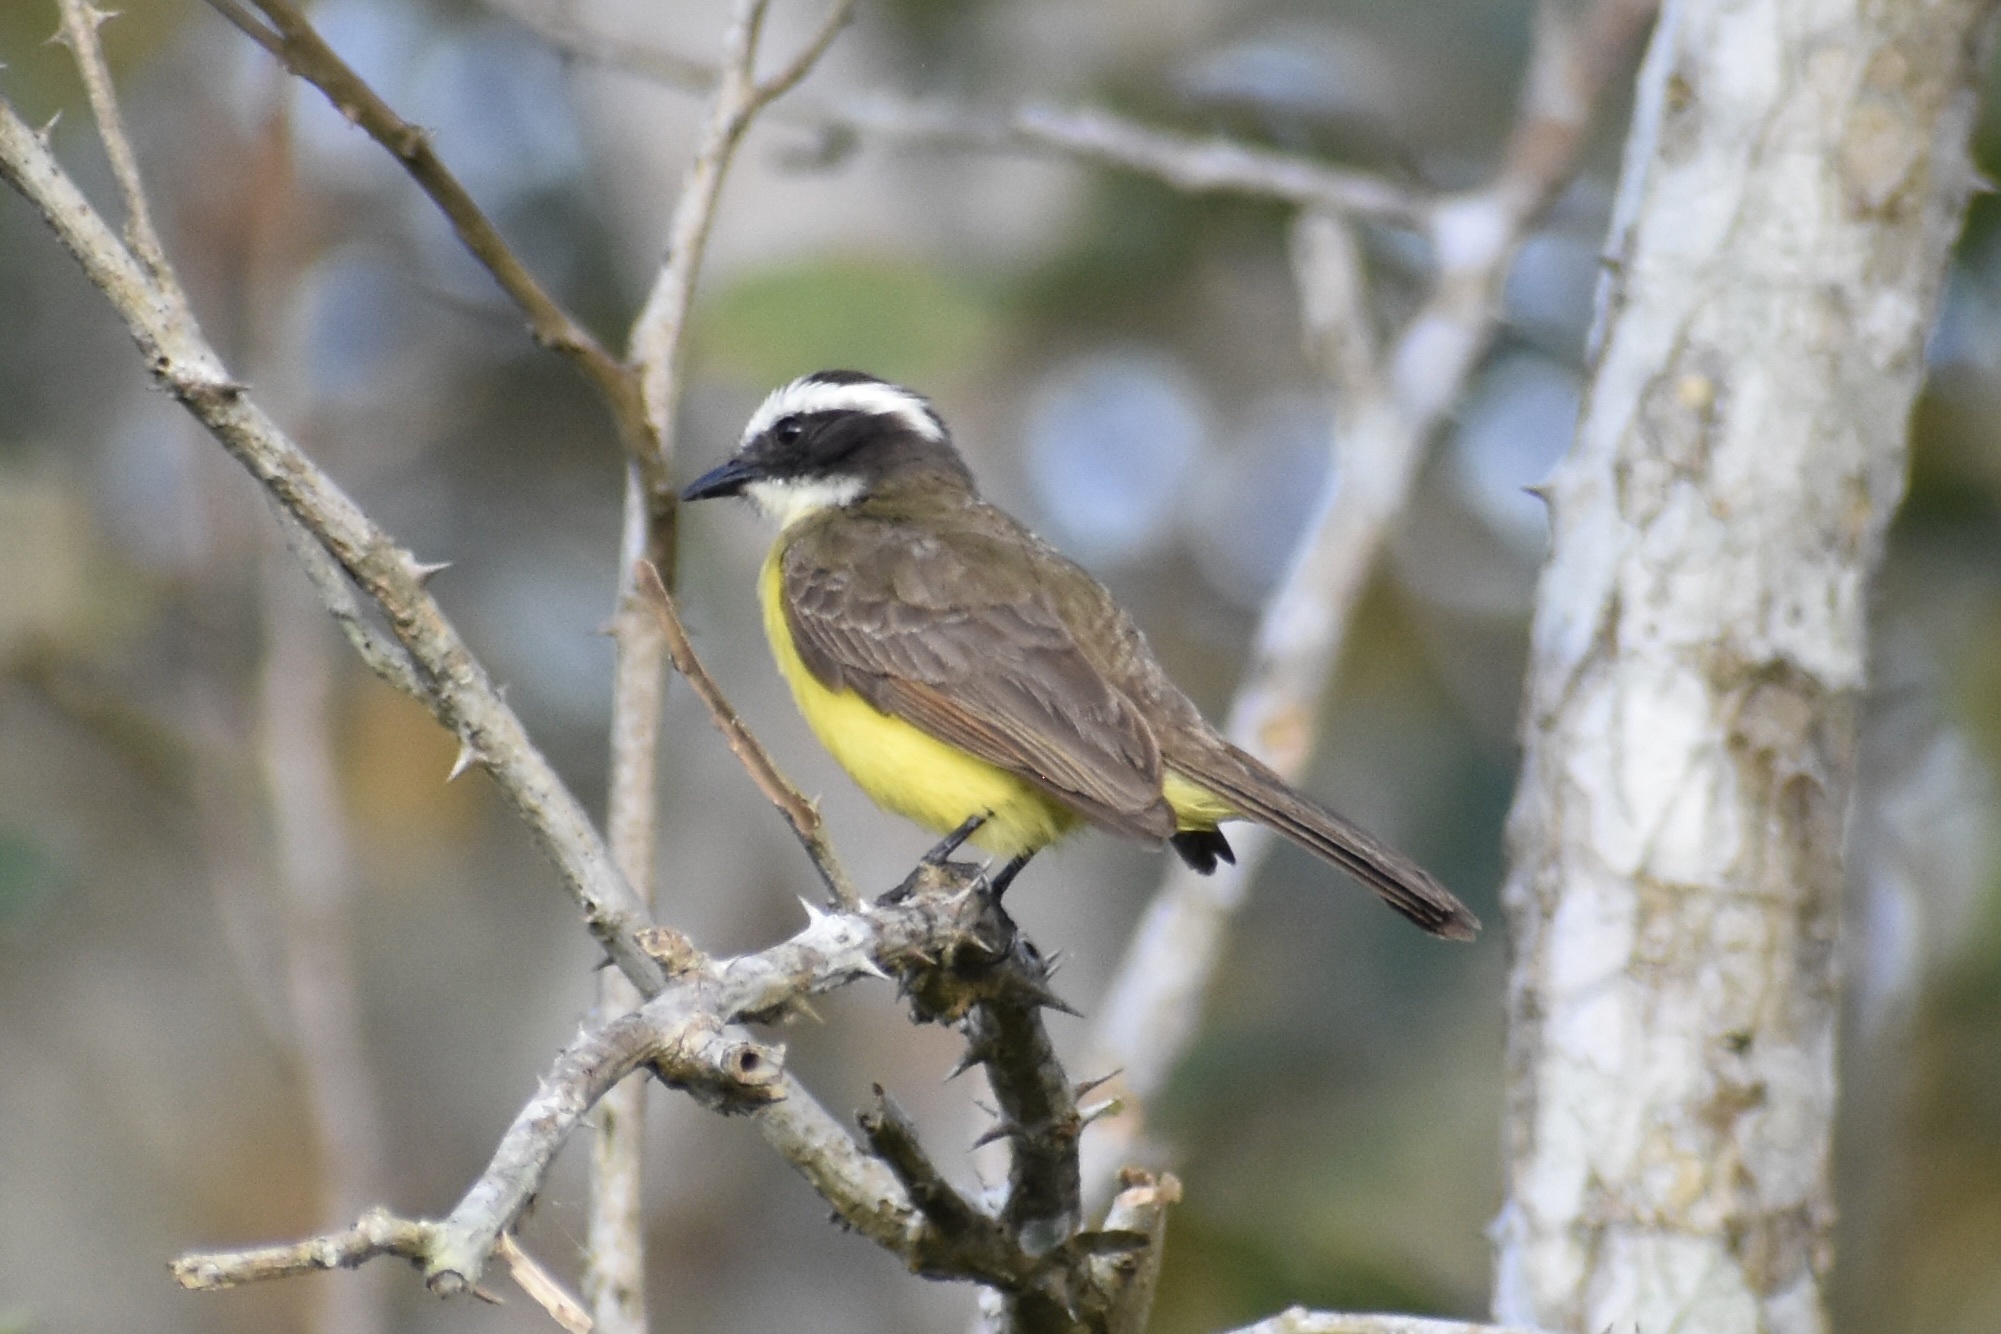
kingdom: Animalia
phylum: Chordata
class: Aves
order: Passeriformes
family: Tyrannidae
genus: Myiozetetes
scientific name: Myiozetetes cayanensis
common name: Rusty-margined flycatcher
